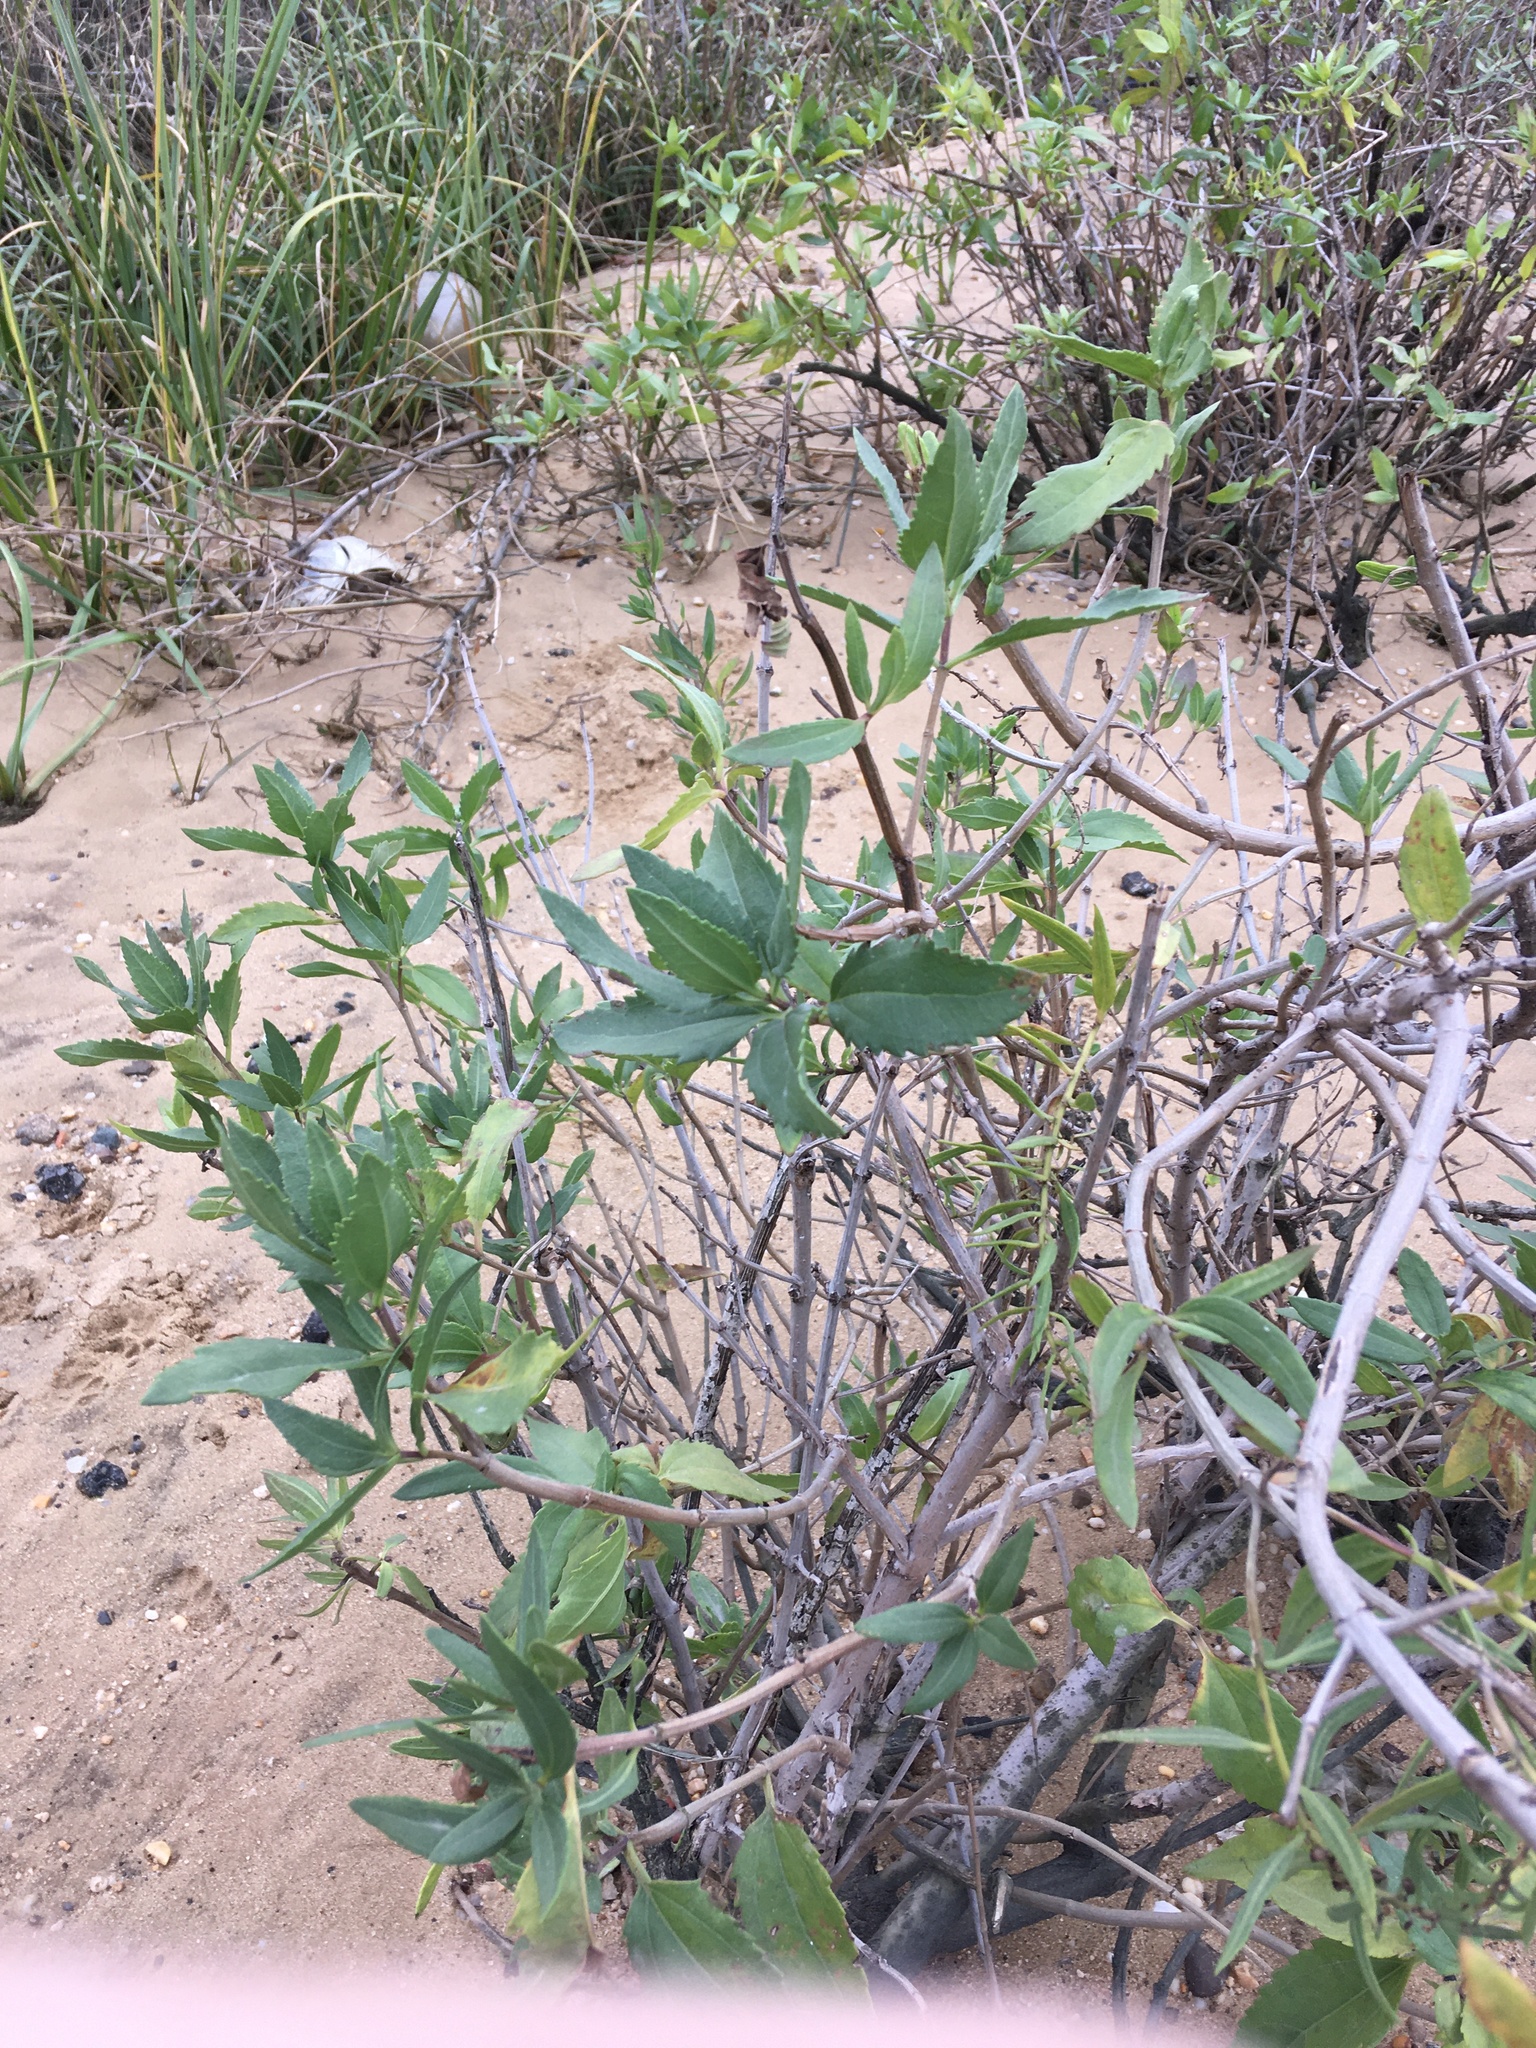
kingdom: Plantae
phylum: Tracheophyta
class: Magnoliopsida
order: Asterales
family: Asteraceae
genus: Iva
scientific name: Iva frutescens
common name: Big-leaved marsh-elder
